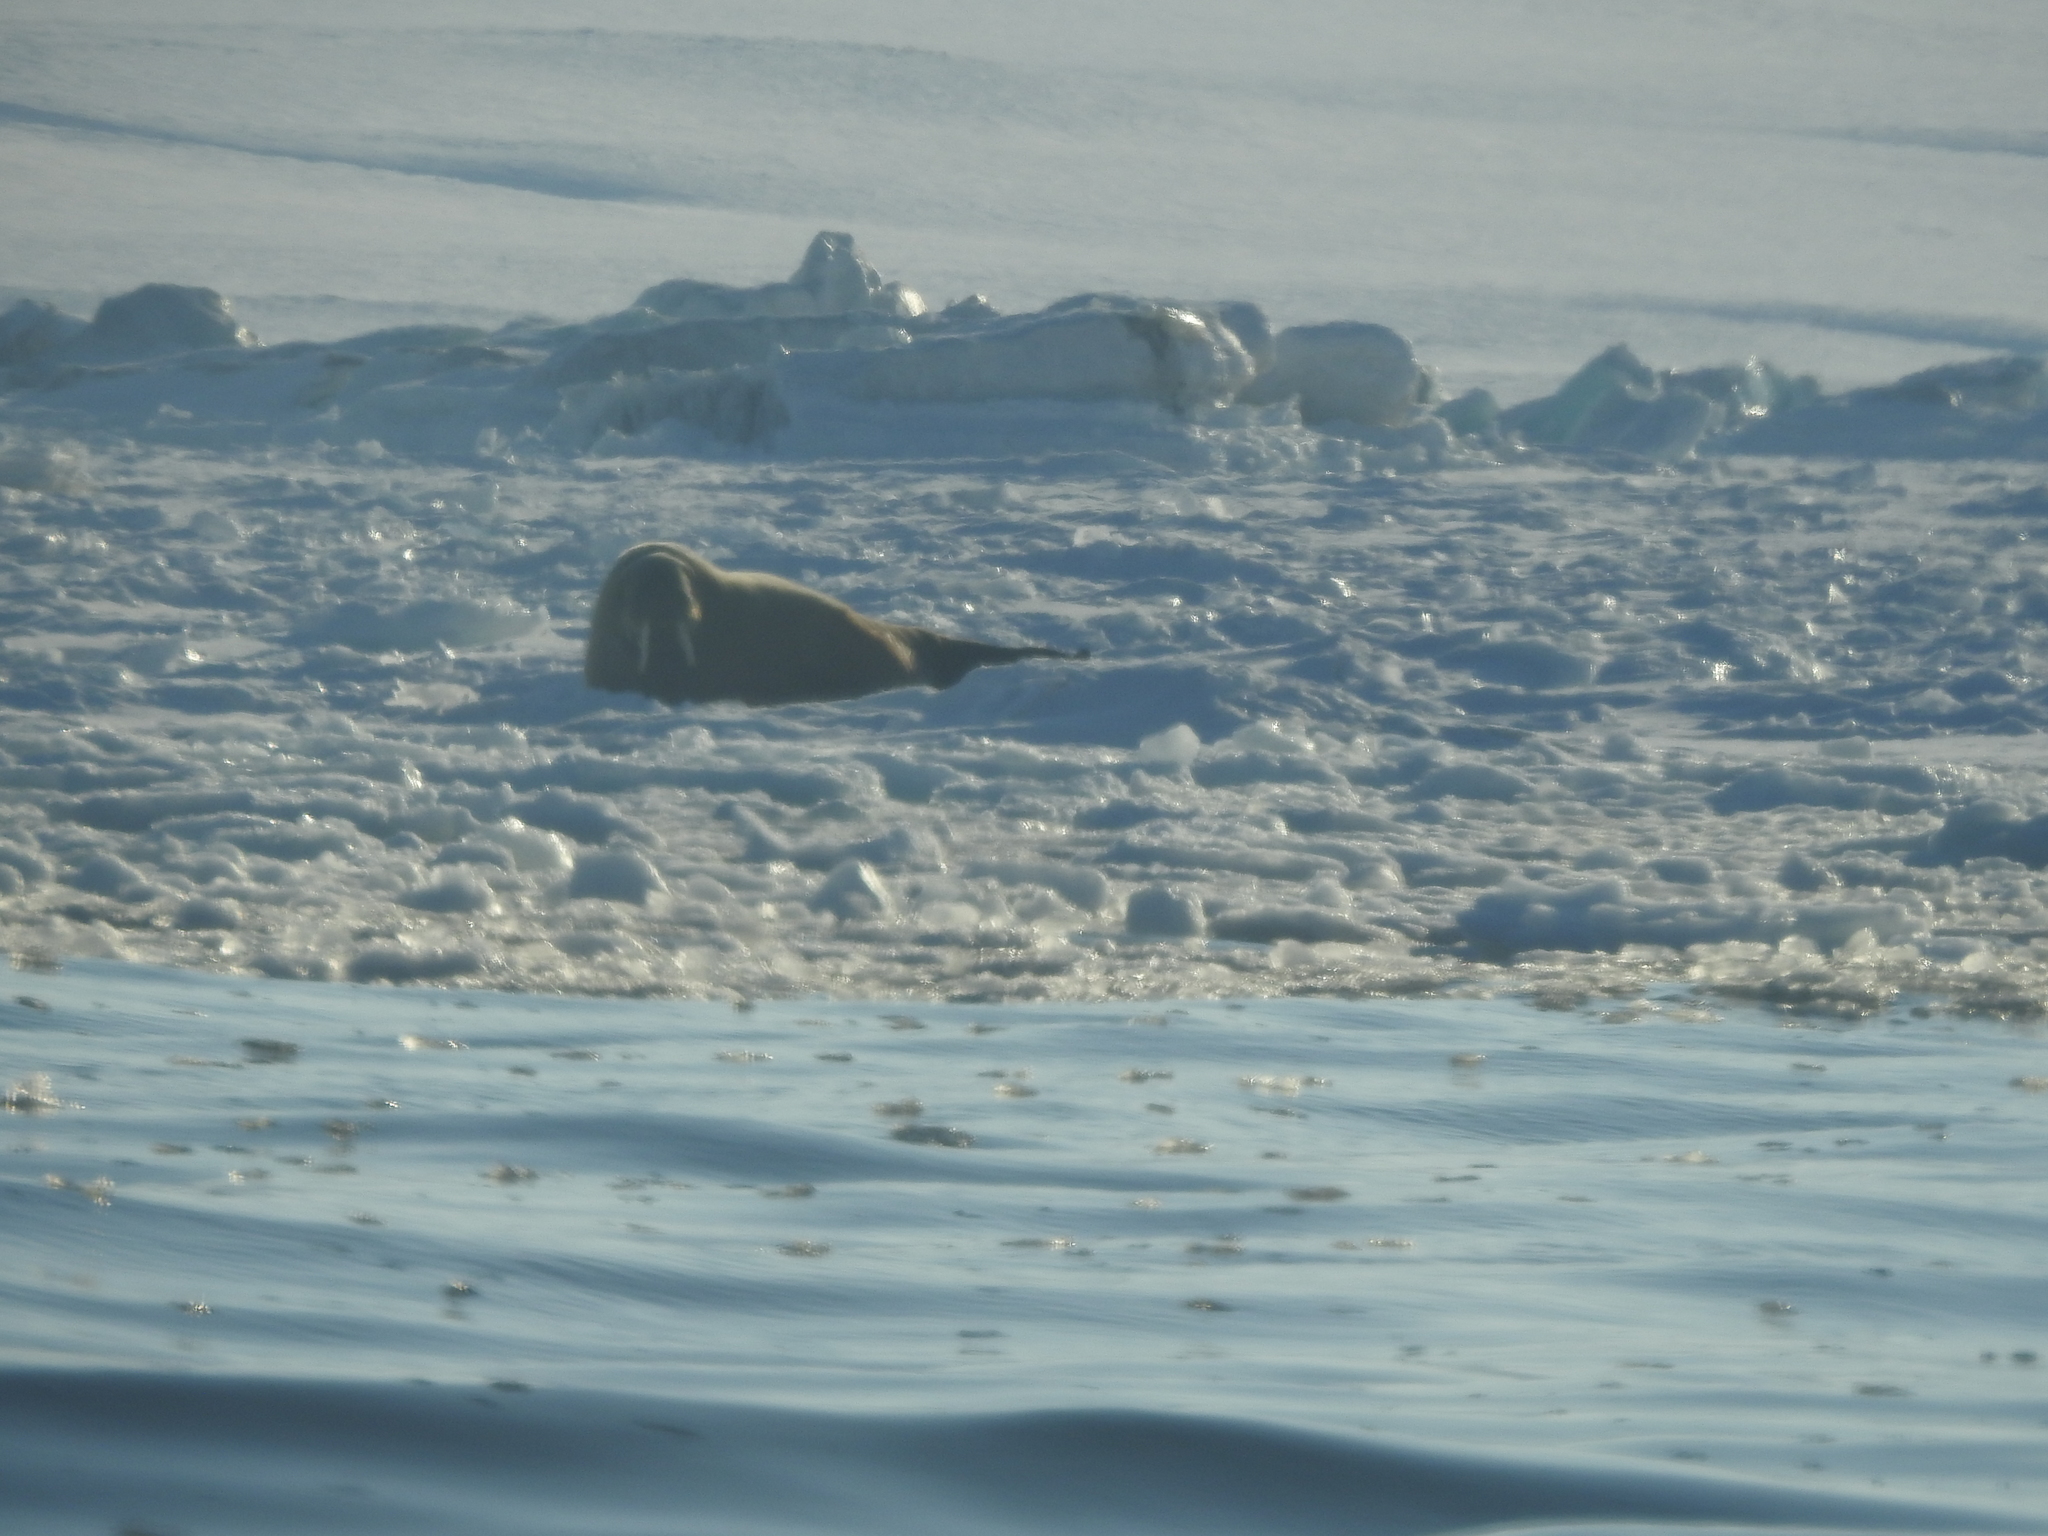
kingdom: Animalia
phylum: Chordata
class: Mammalia
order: Carnivora
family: Odobenidae
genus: Odobenus
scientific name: Odobenus rosmarus
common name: Walrus
